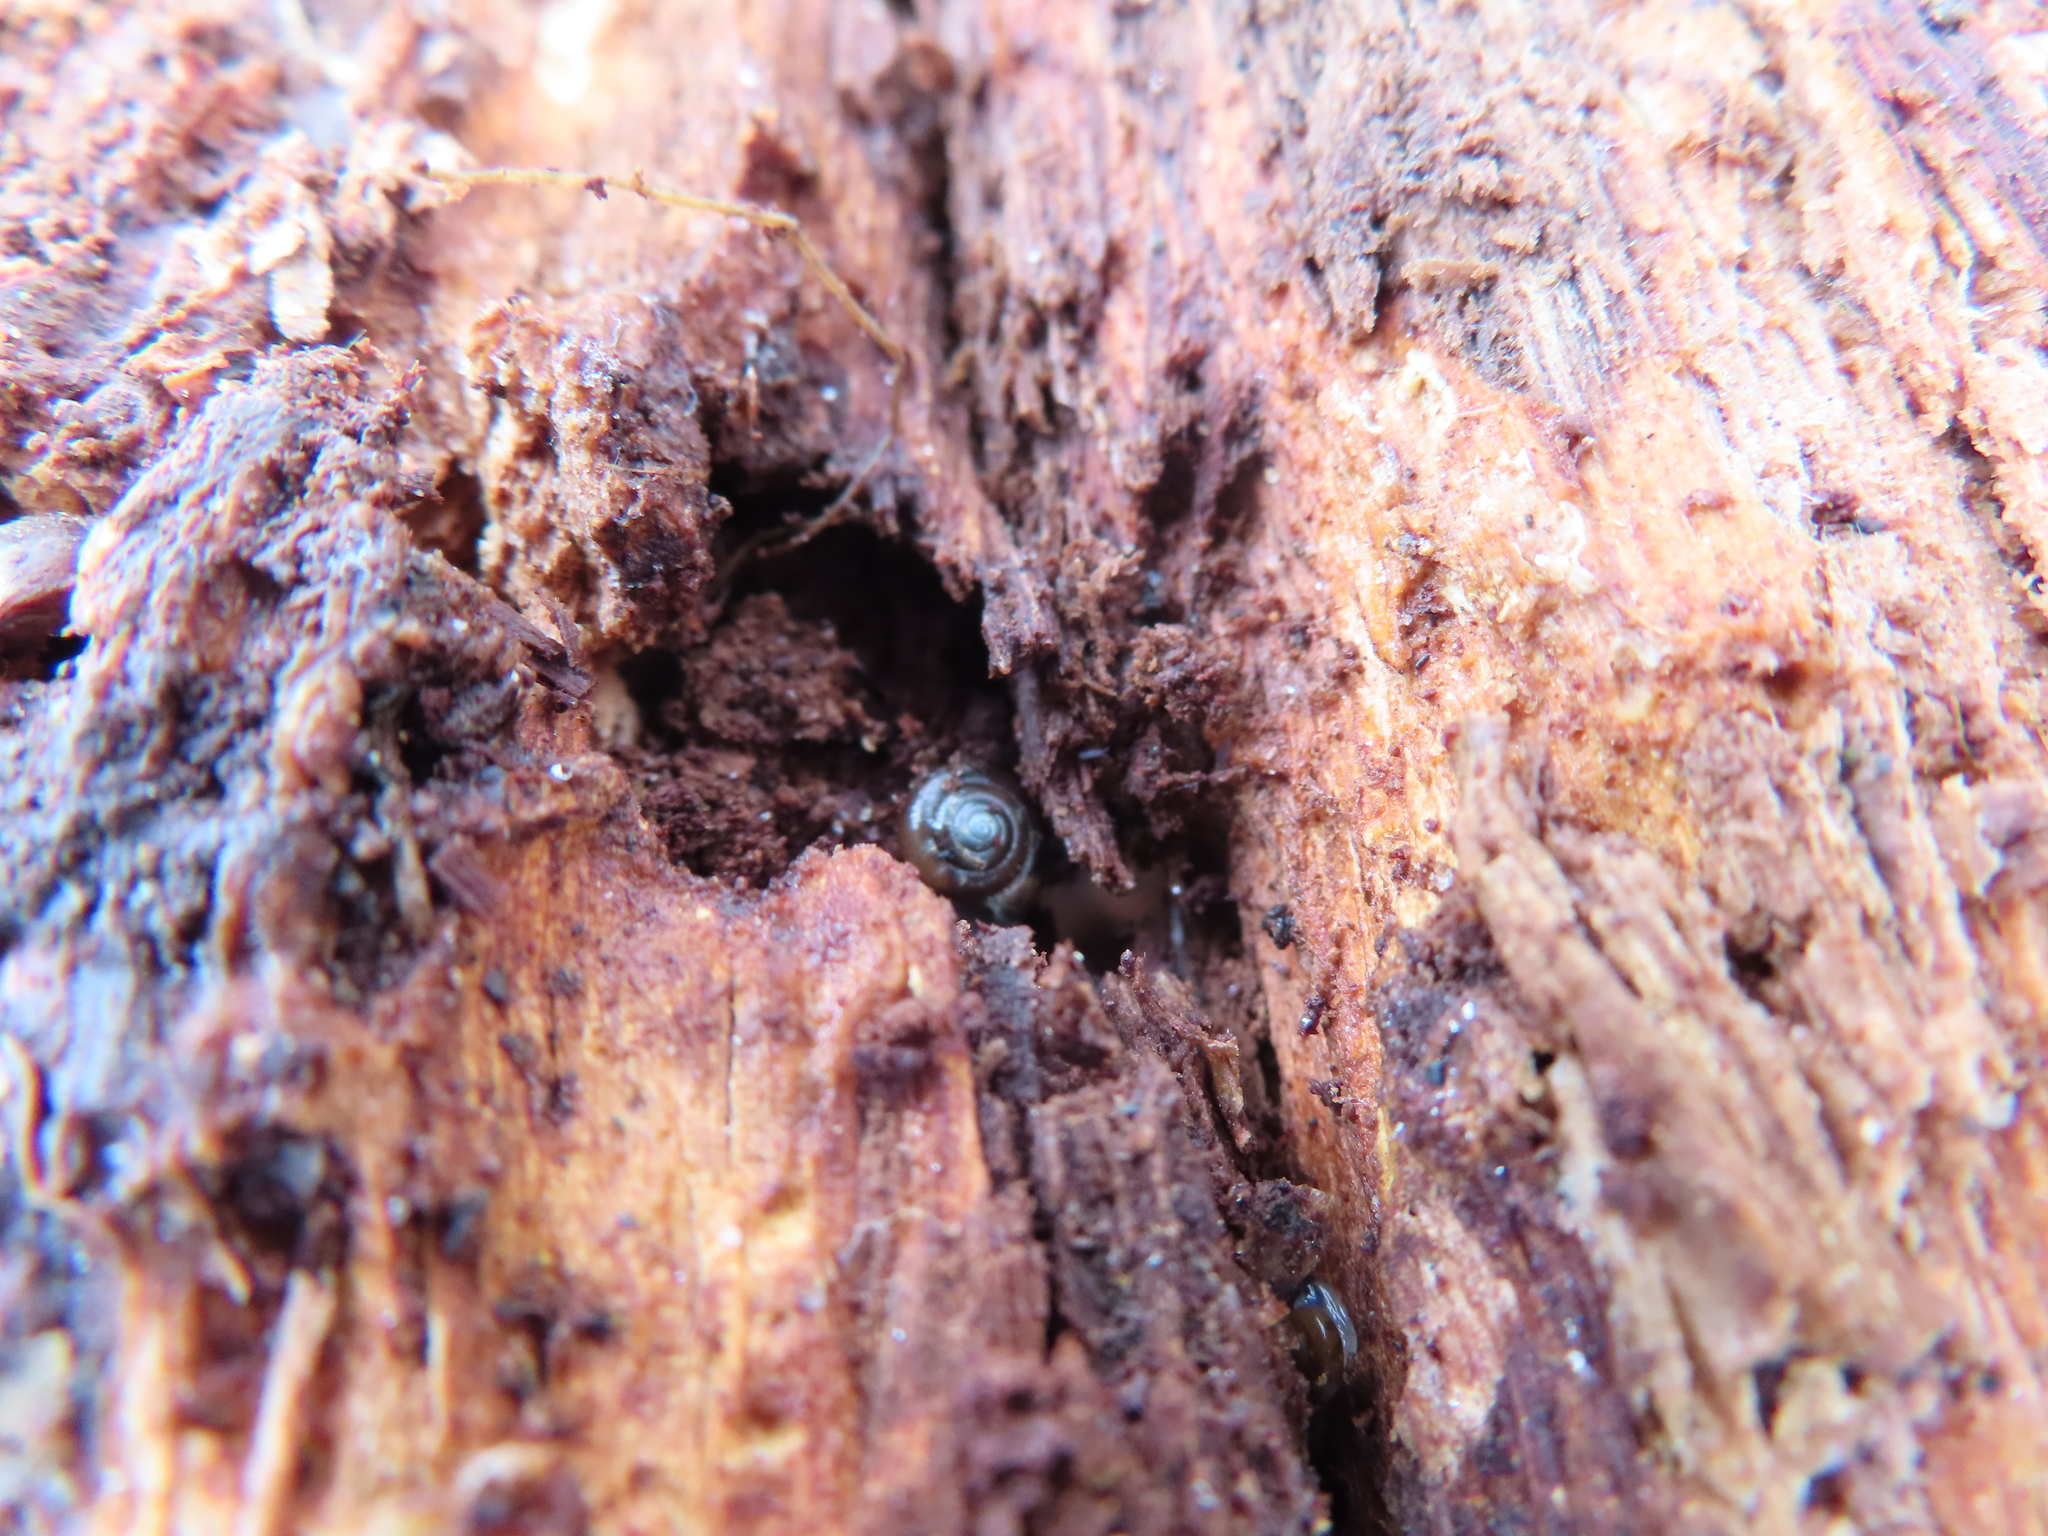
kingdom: Animalia
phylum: Mollusca
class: Gastropoda
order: Stylommatophora
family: Gastrodontidae
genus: Zonitoides
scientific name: Zonitoides arboreus
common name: Quick gloss
